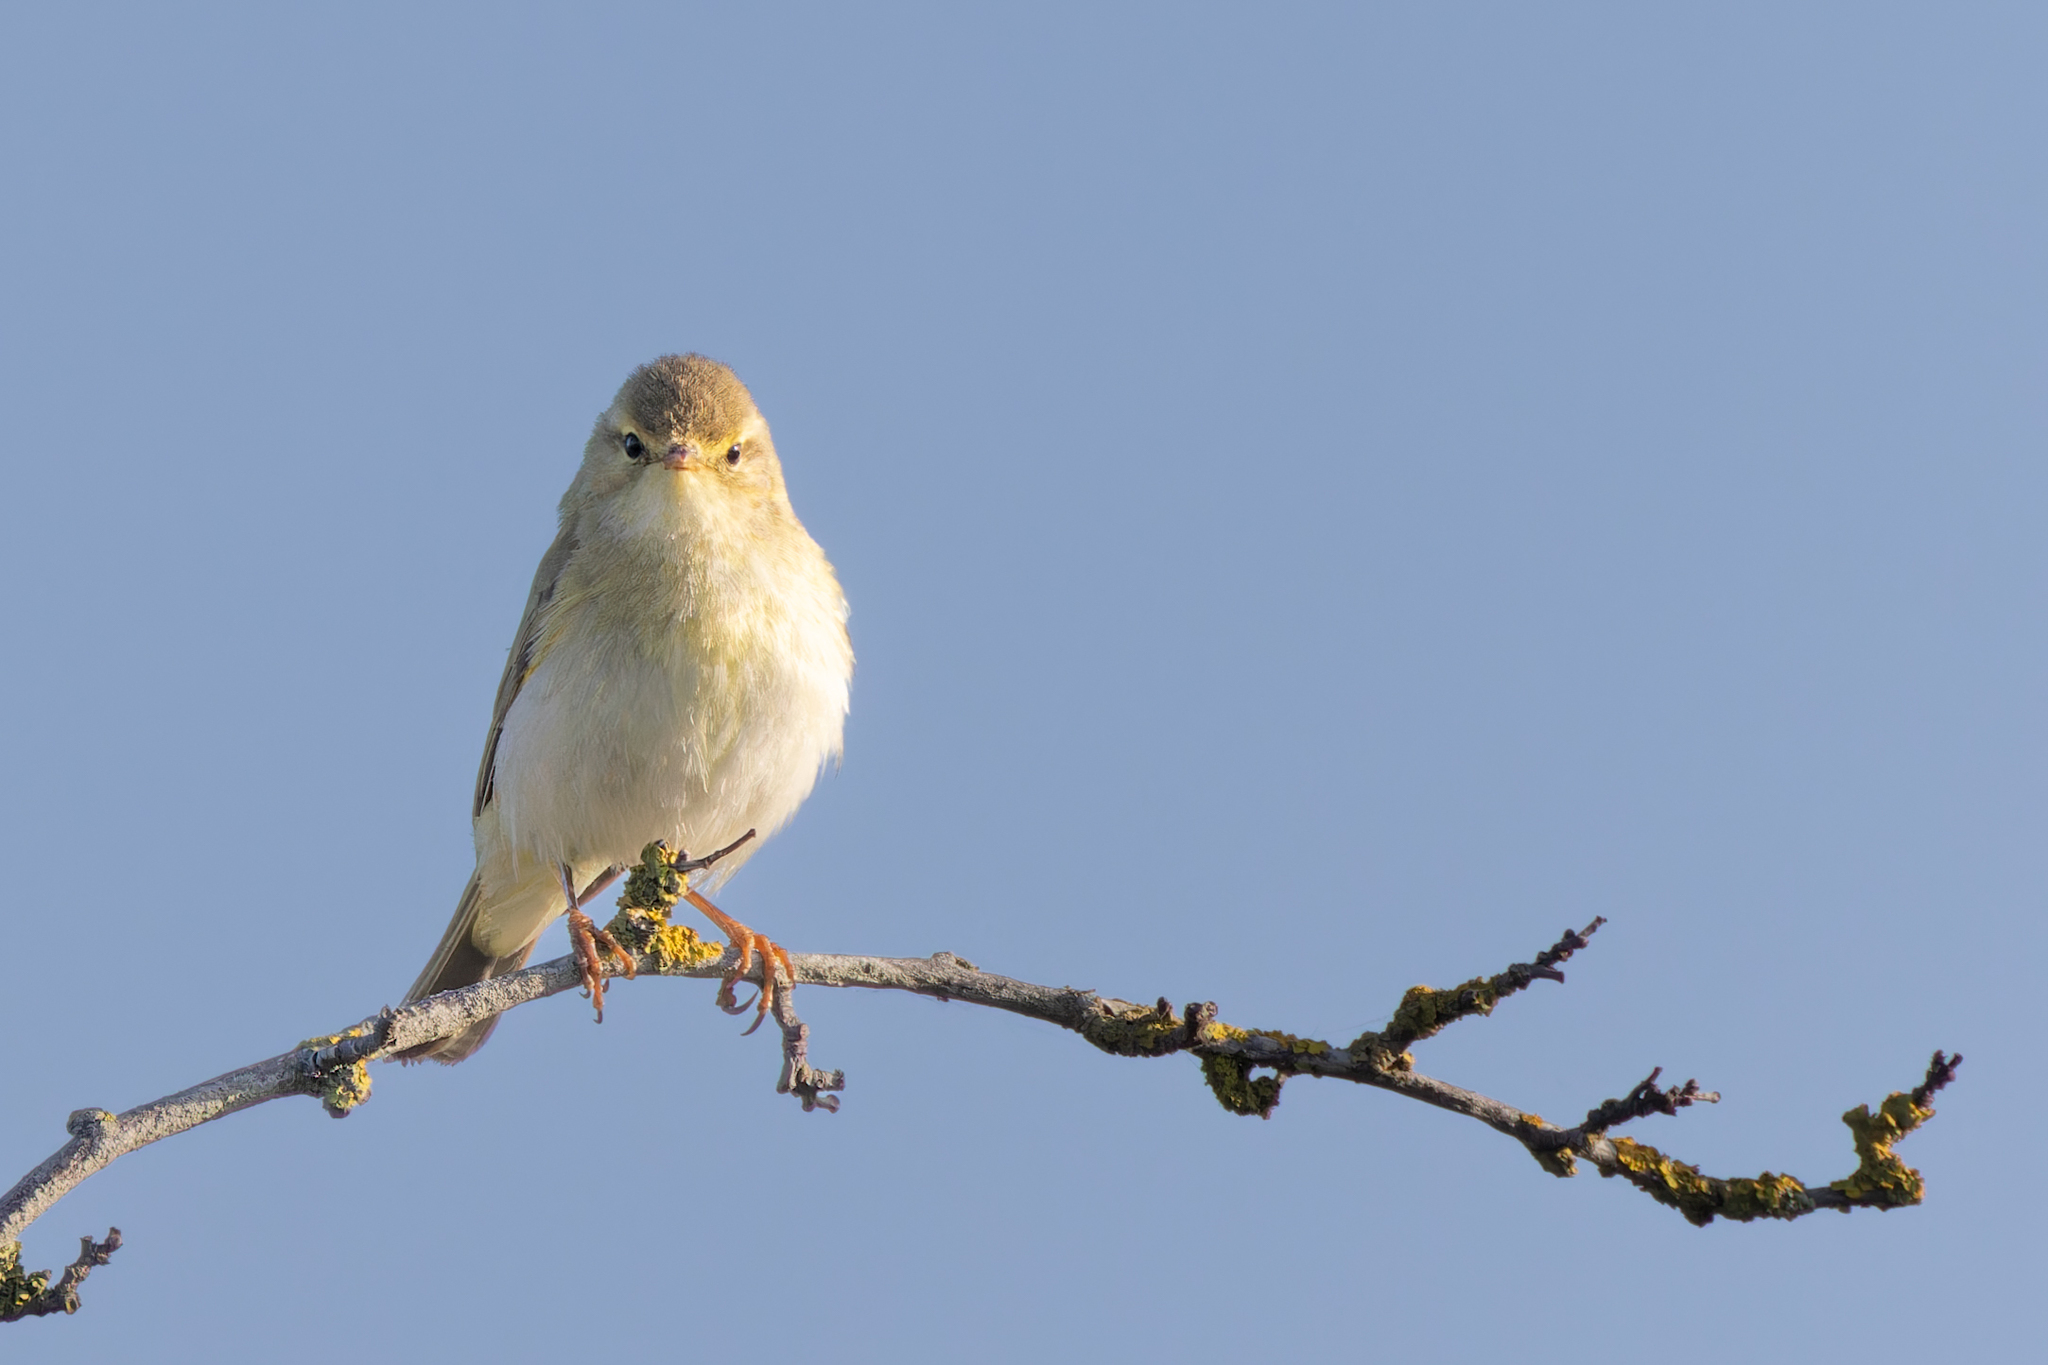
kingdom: Animalia
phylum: Chordata
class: Aves
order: Passeriformes
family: Phylloscopidae
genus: Phylloscopus
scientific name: Phylloscopus trochilus
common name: Willow warbler
